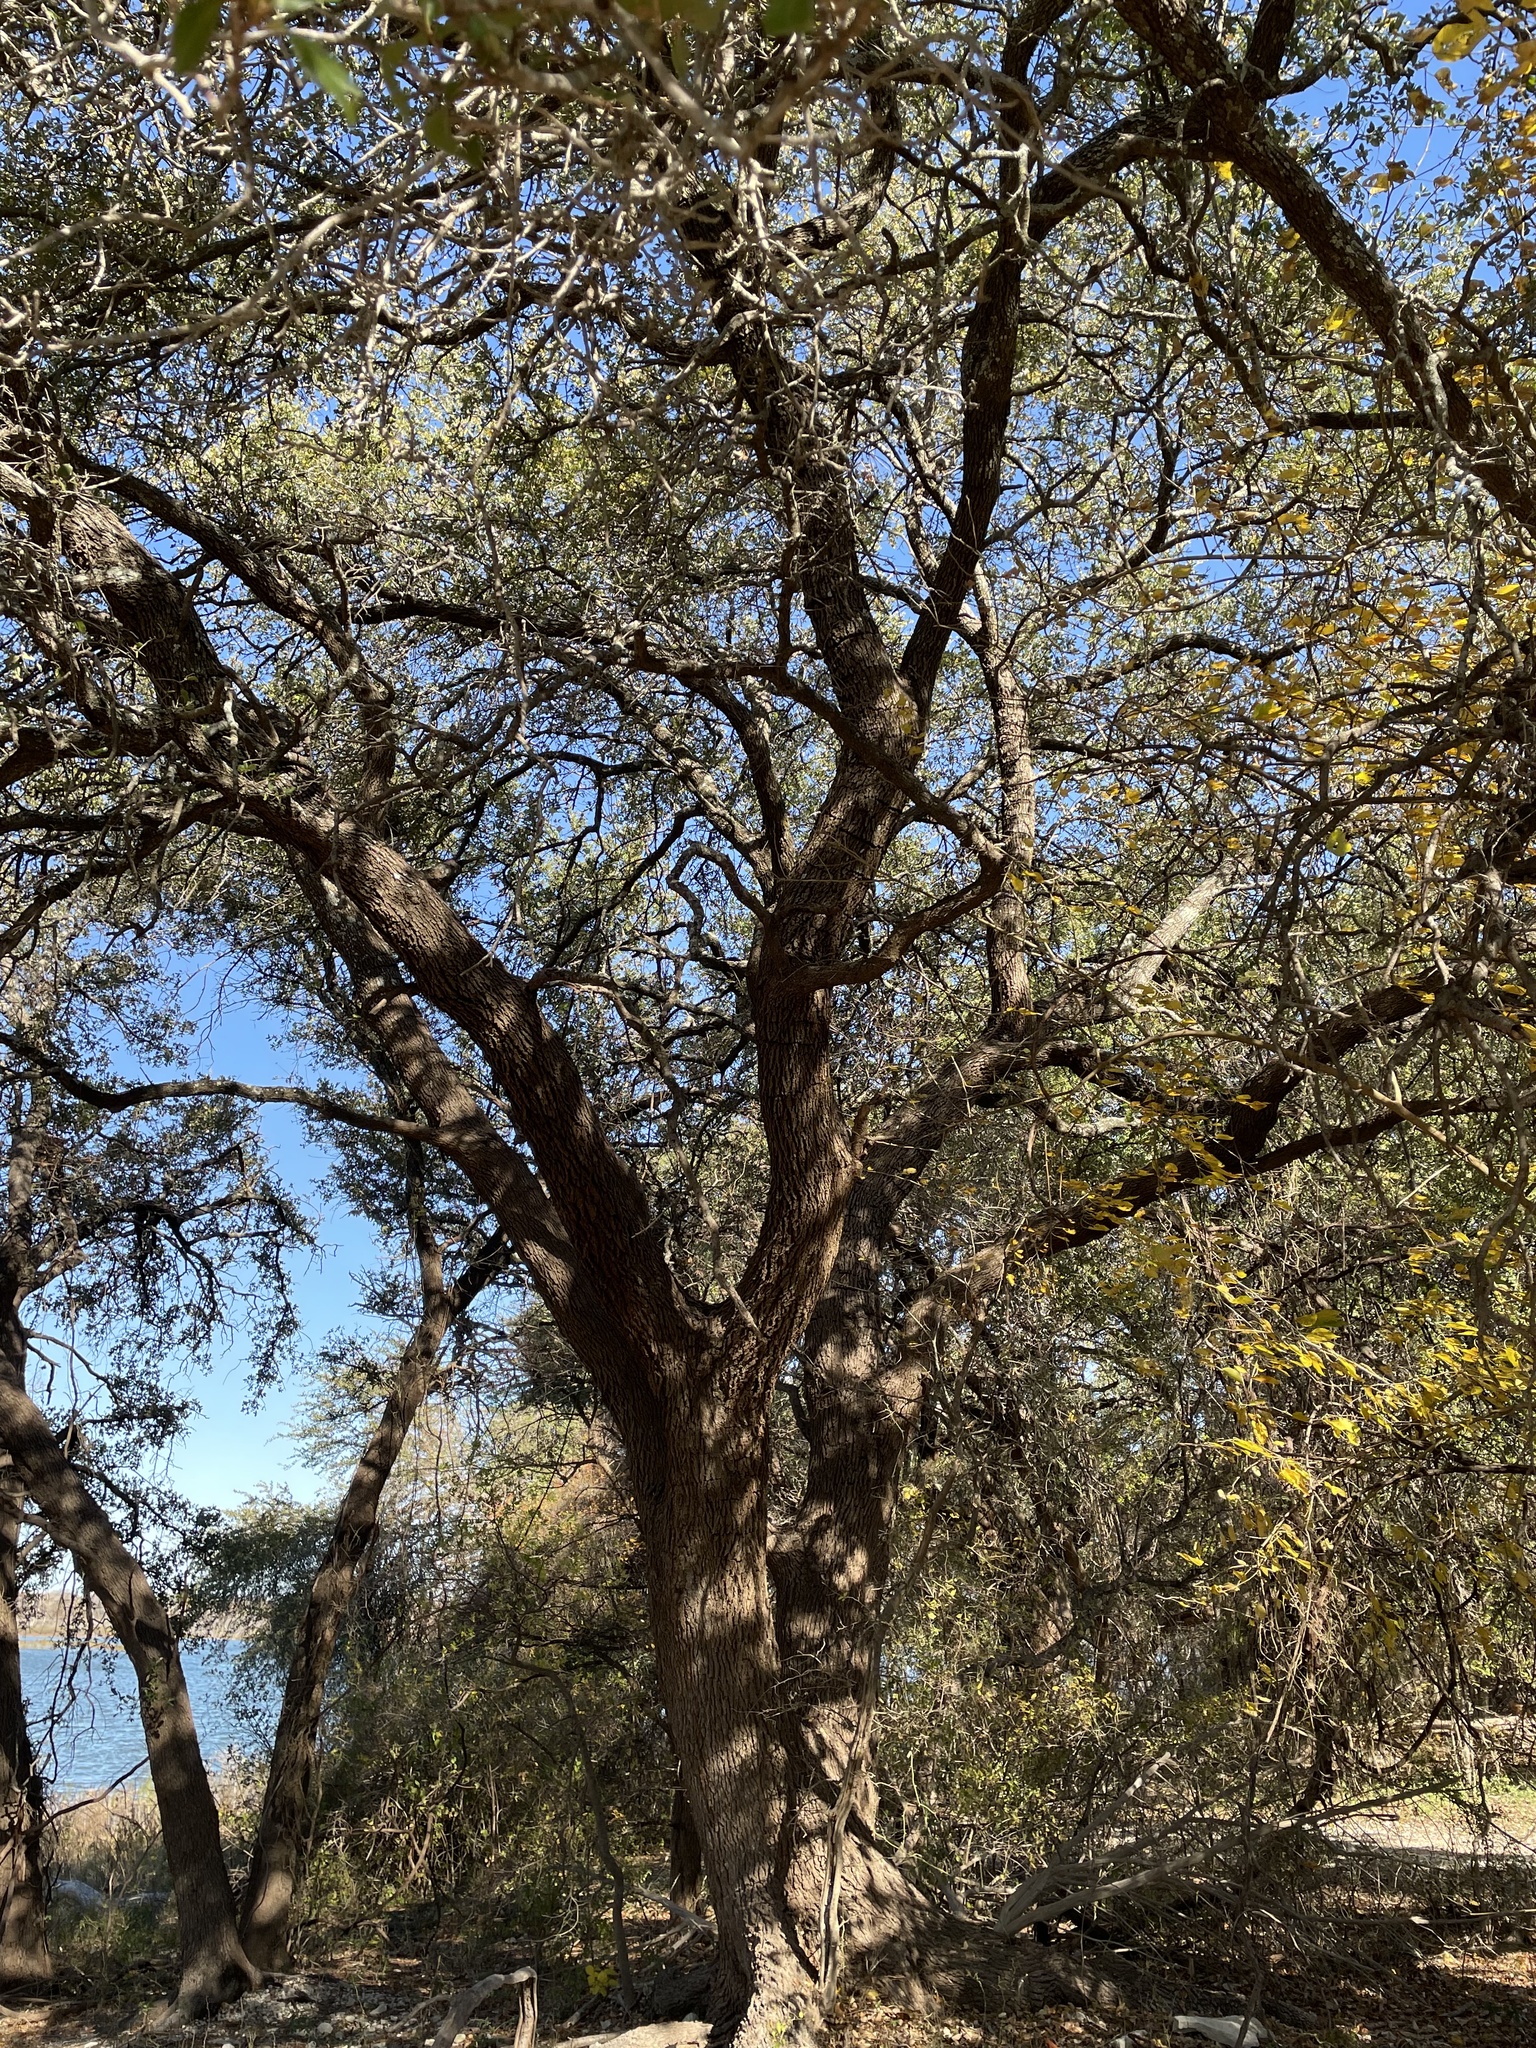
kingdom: Plantae
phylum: Tracheophyta
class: Magnoliopsida
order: Fagales
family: Fagaceae
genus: Quercus
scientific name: Quercus fusiformis
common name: Texas live oak
